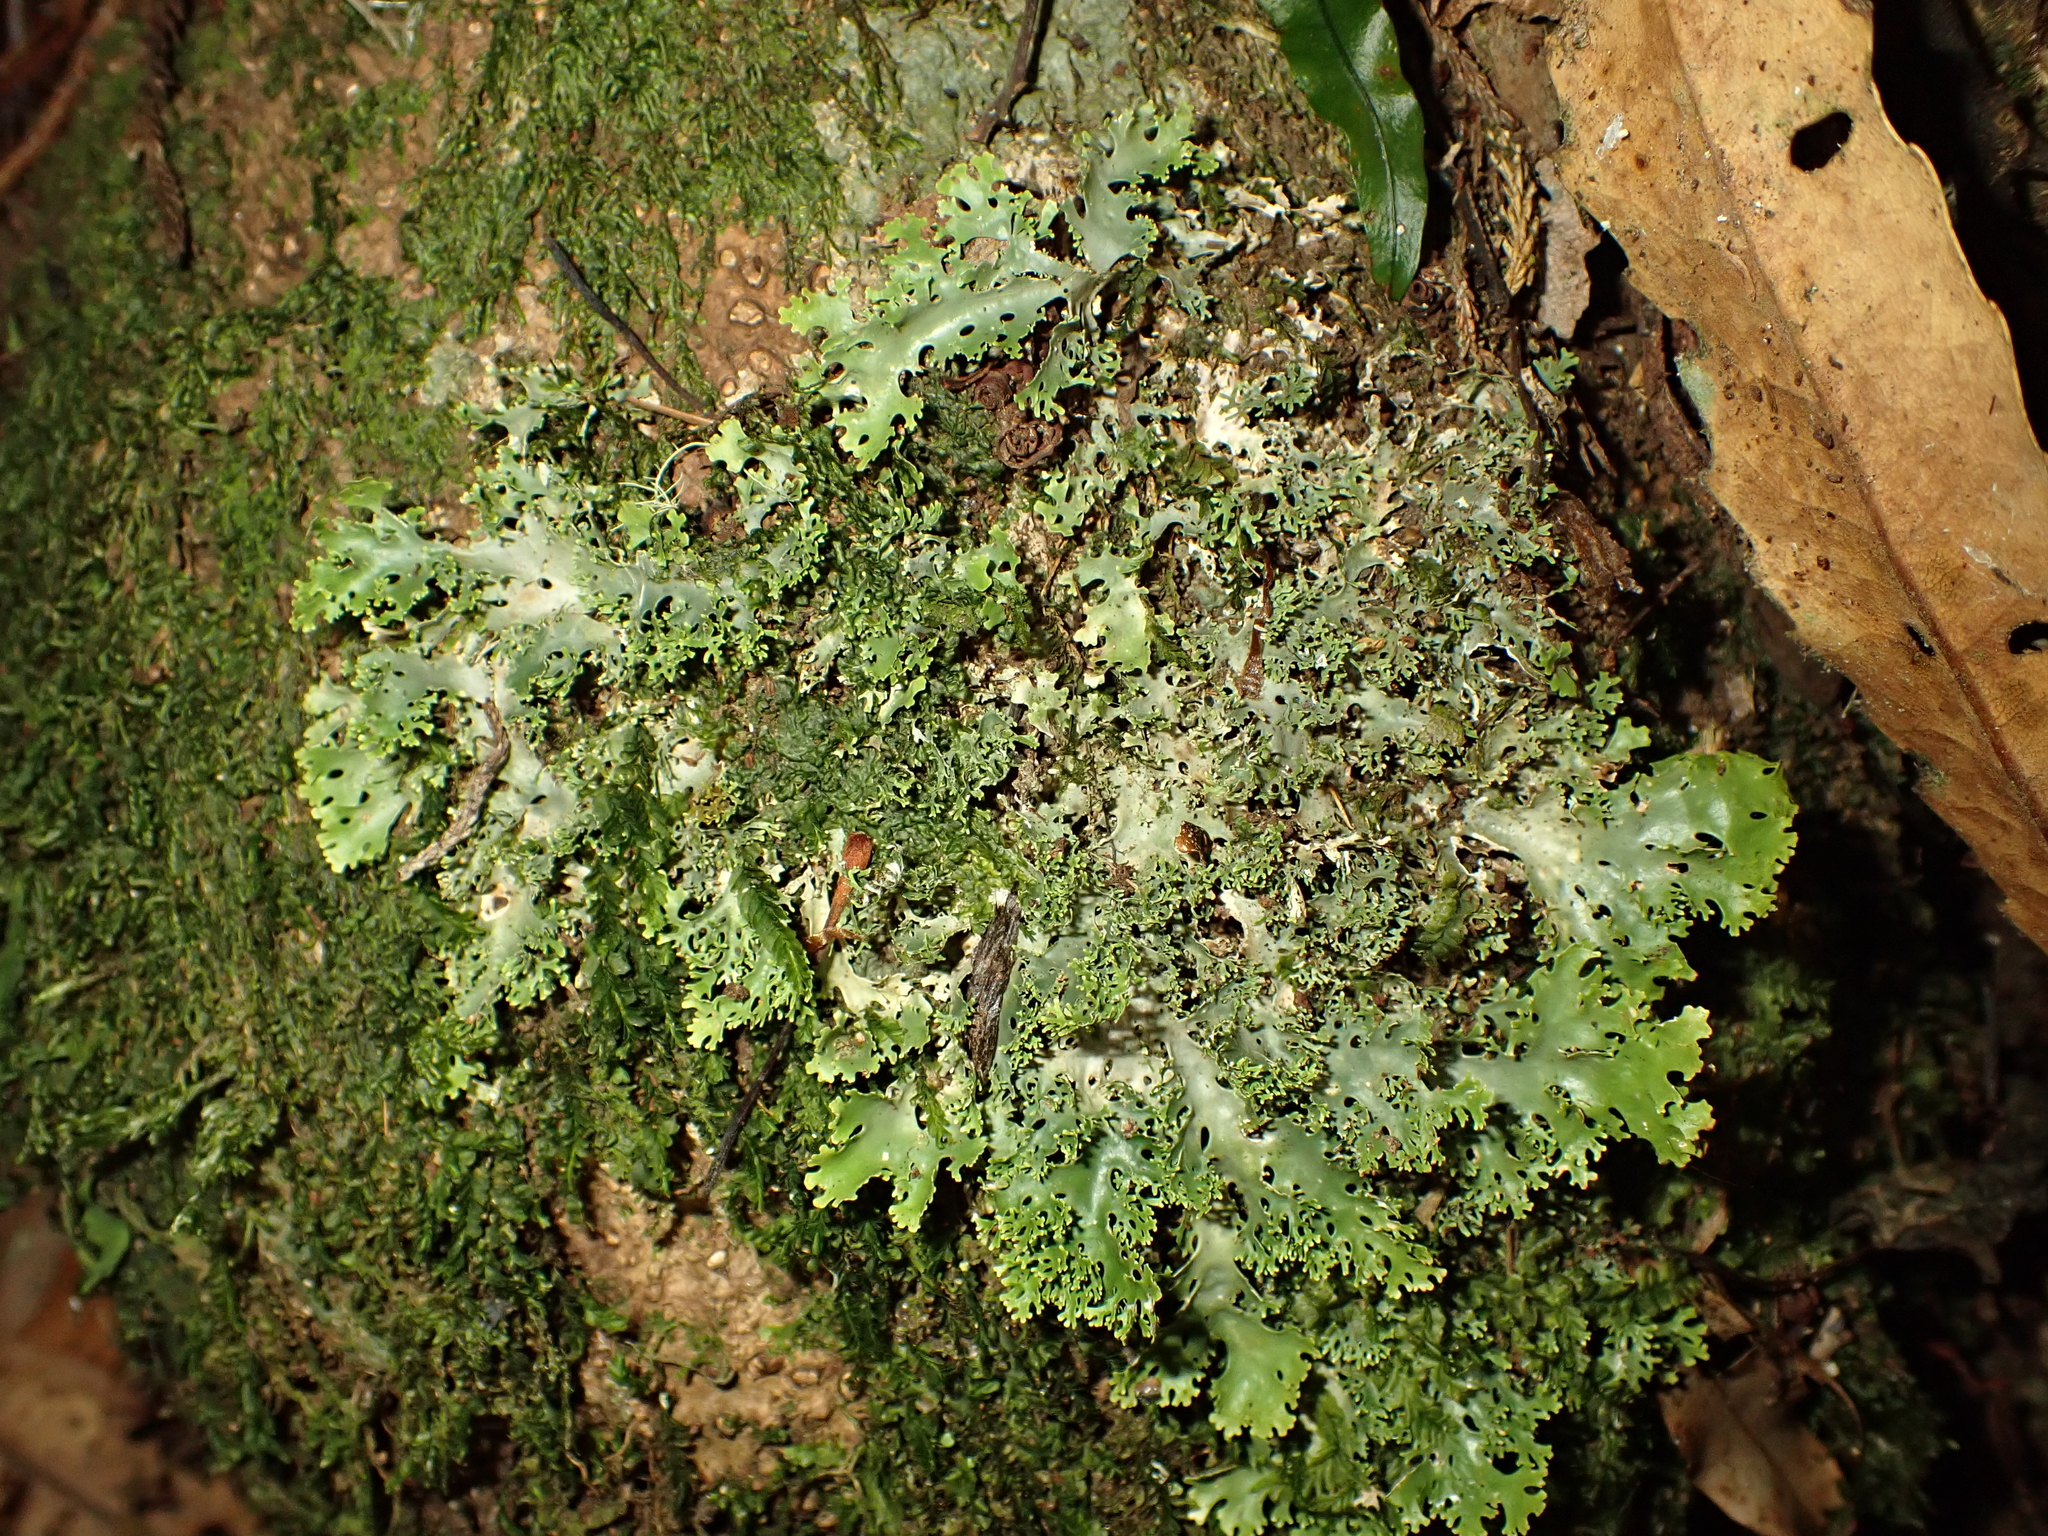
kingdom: Fungi
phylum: Ascomycota
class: Lecanoromycetes
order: Peltigerales
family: Lobariaceae
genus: Pseudocyphellaria
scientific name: Pseudocyphellaria multifida
